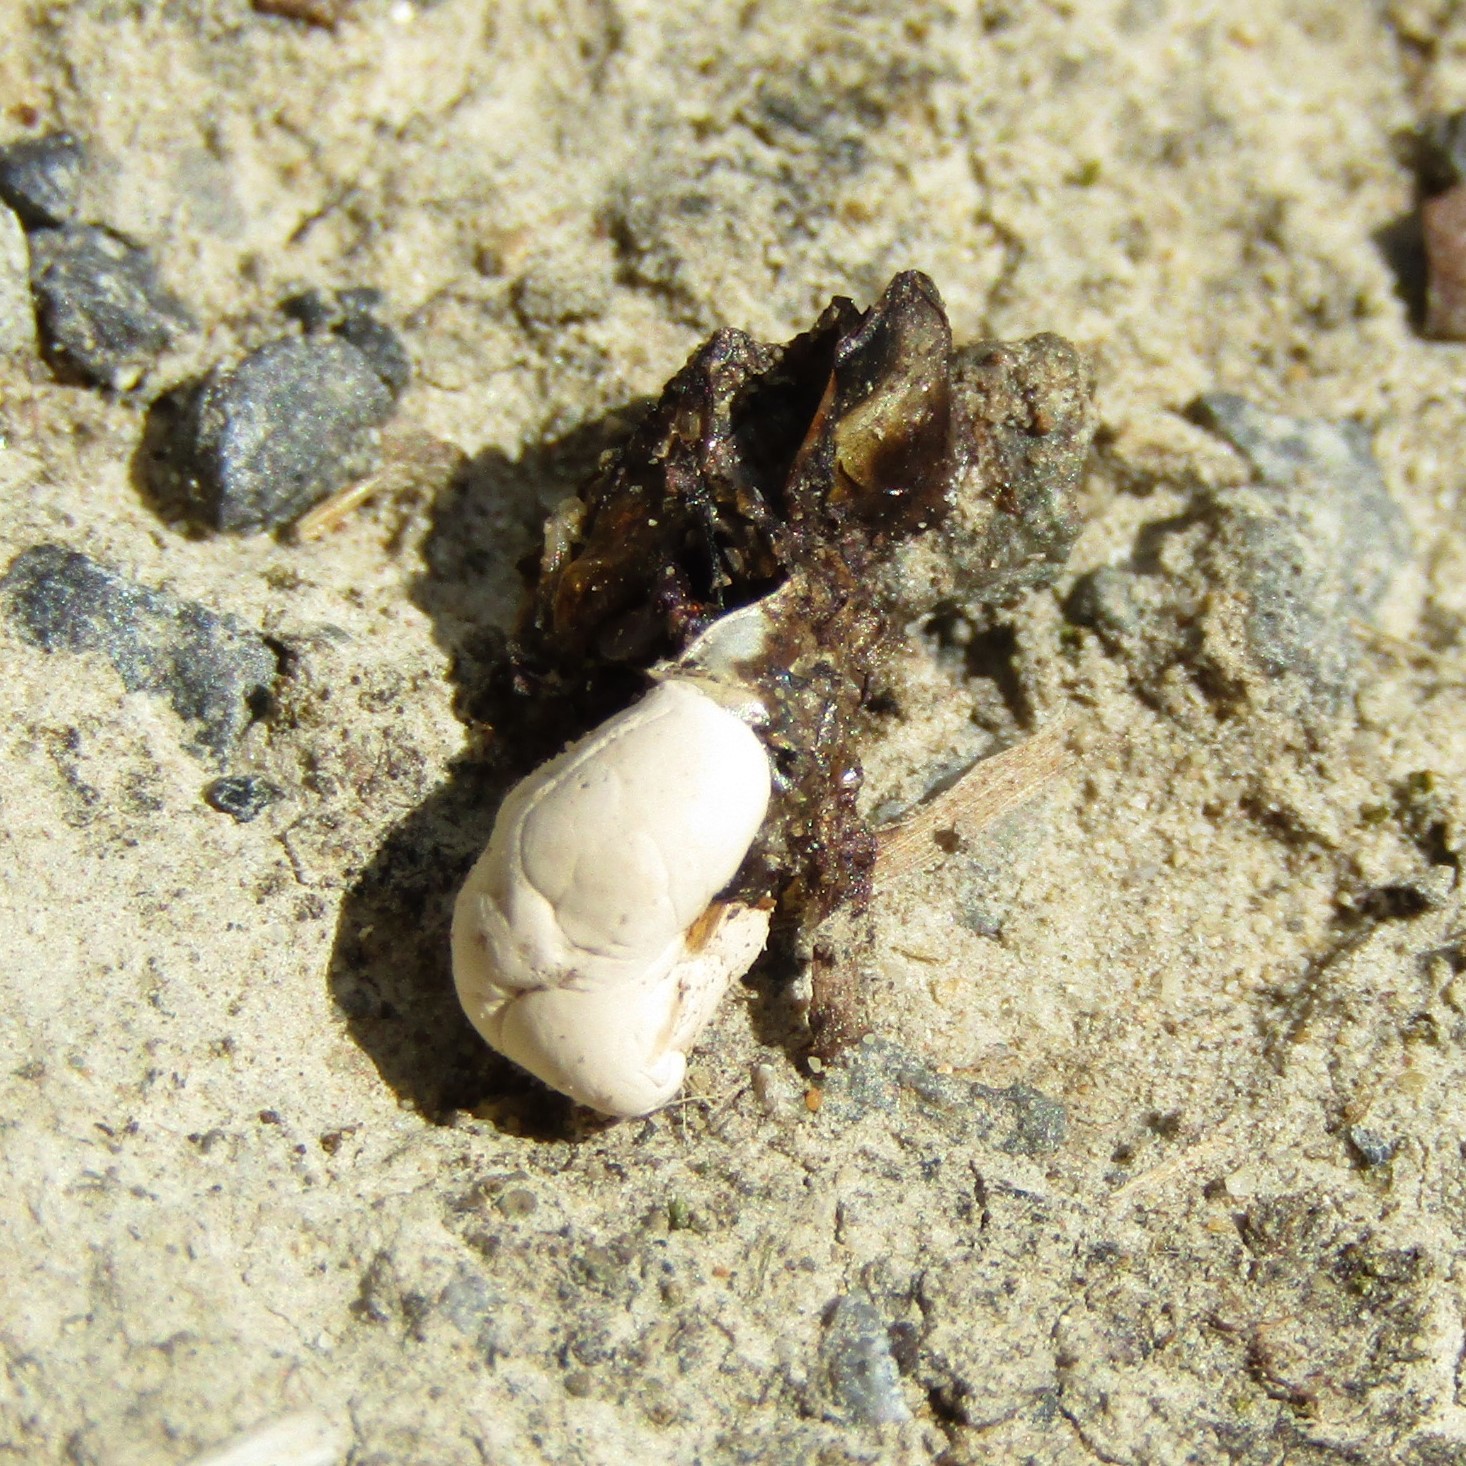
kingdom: Animalia
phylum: Chordata
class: Sphenodontia
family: Sphenodontidae
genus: Sphenodon
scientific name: Sphenodon punctatus
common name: Tuatara
